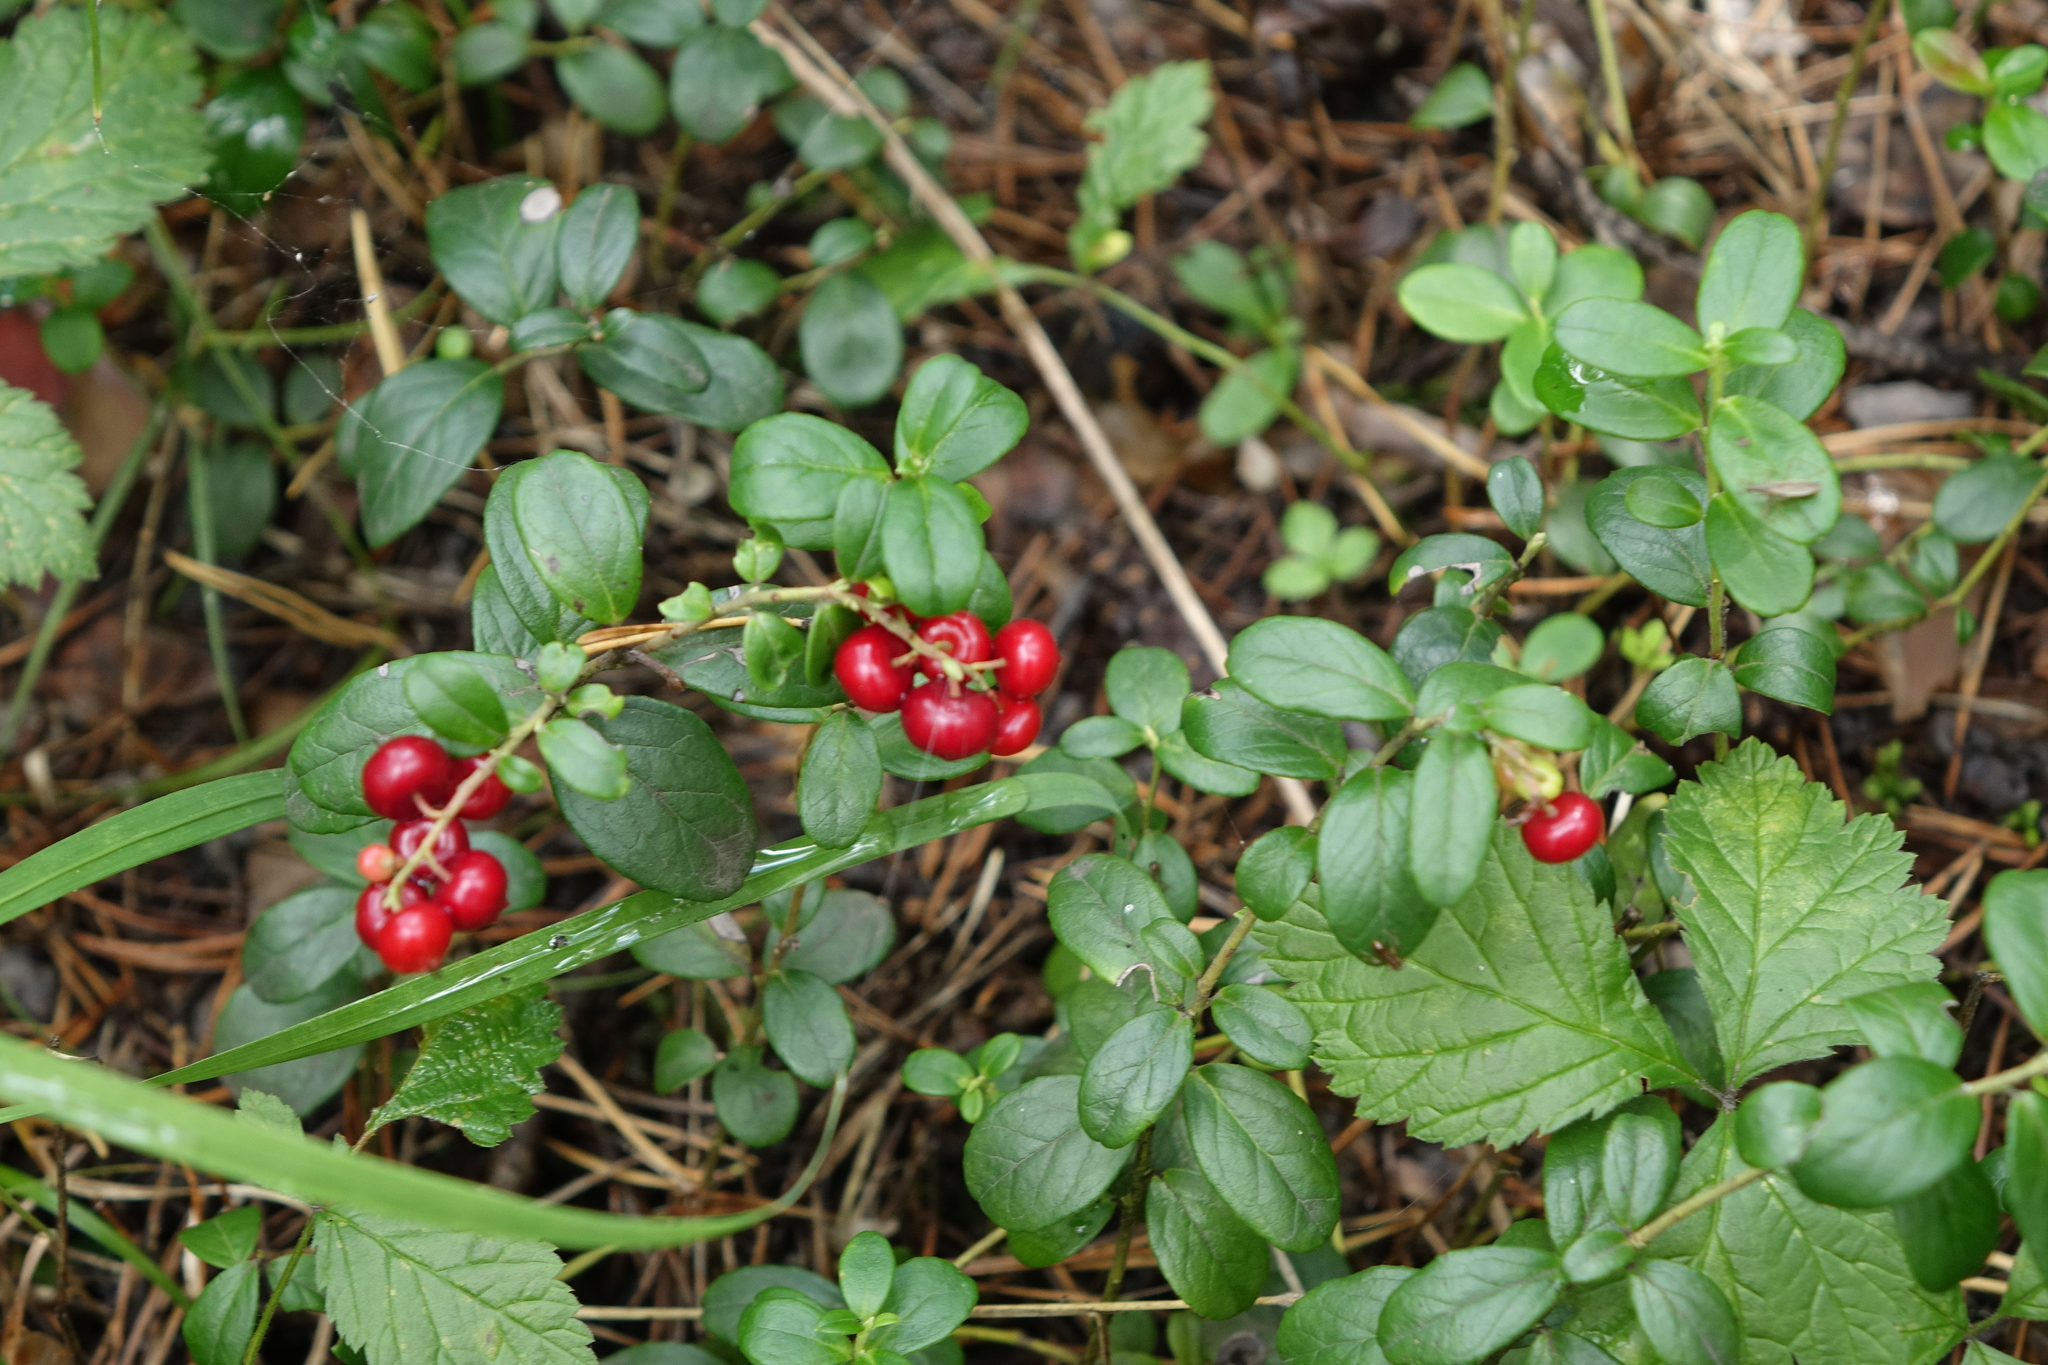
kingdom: Plantae
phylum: Tracheophyta
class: Magnoliopsida
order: Ericales
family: Ericaceae
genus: Vaccinium
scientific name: Vaccinium vitis-idaea
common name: Cowberry
